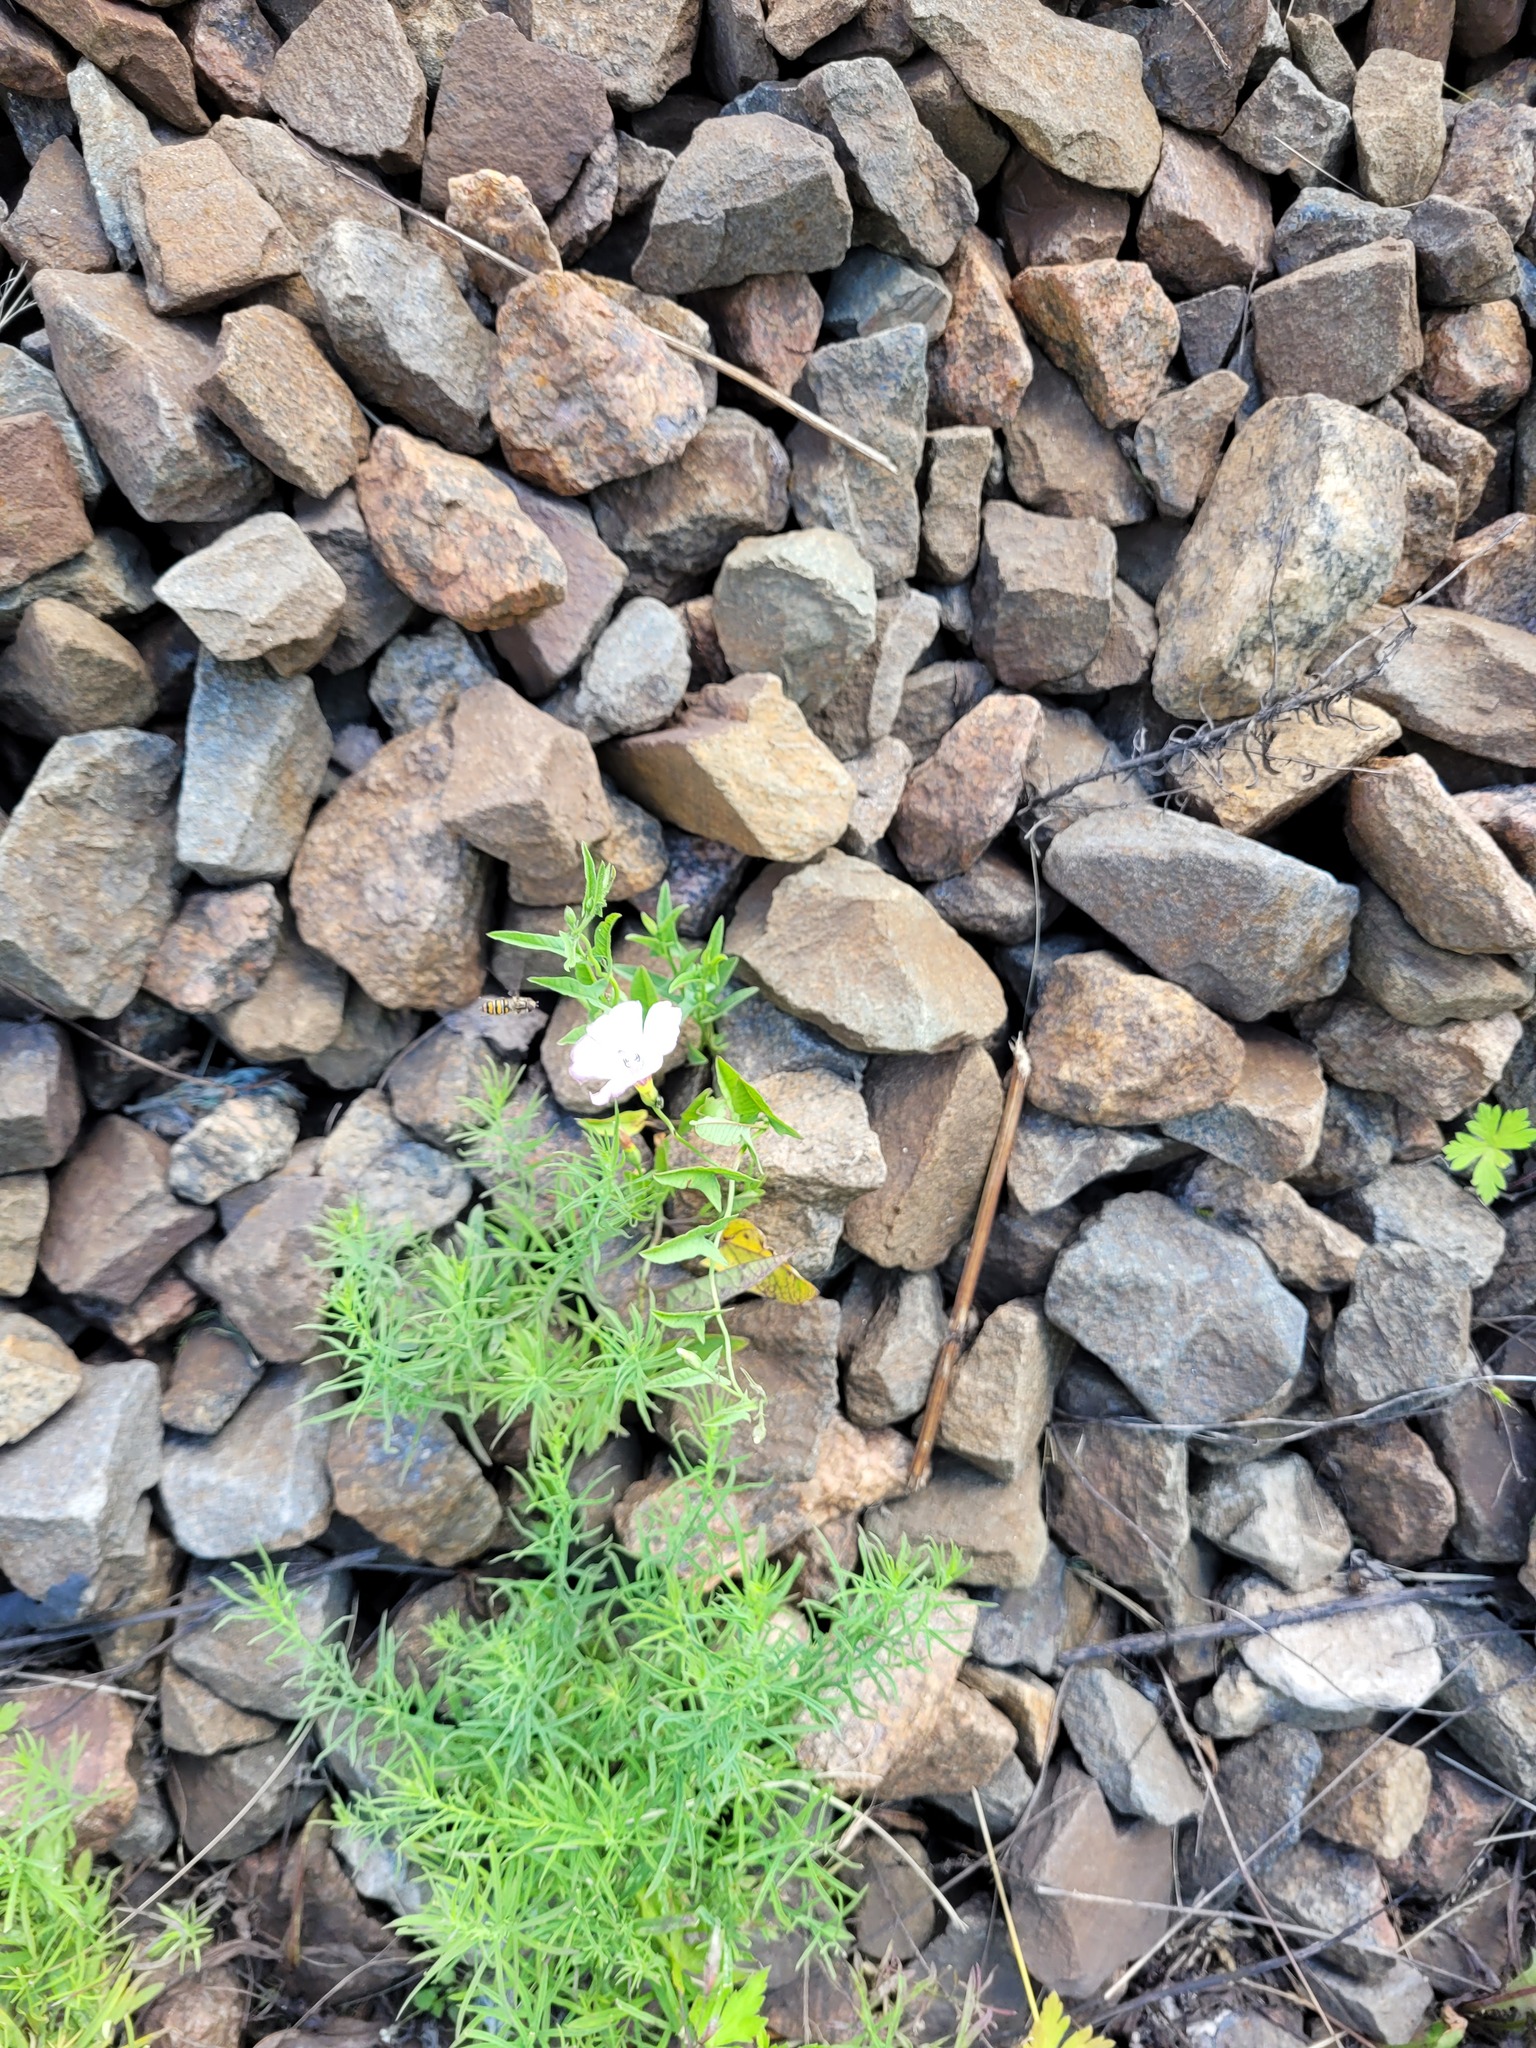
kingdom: Plantae
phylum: Tracheophyta
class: Magnoliopsida
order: Solanales
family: Convolvulaceae
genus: Convolvulus
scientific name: Convolvulus arvensis
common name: Field bindweed
